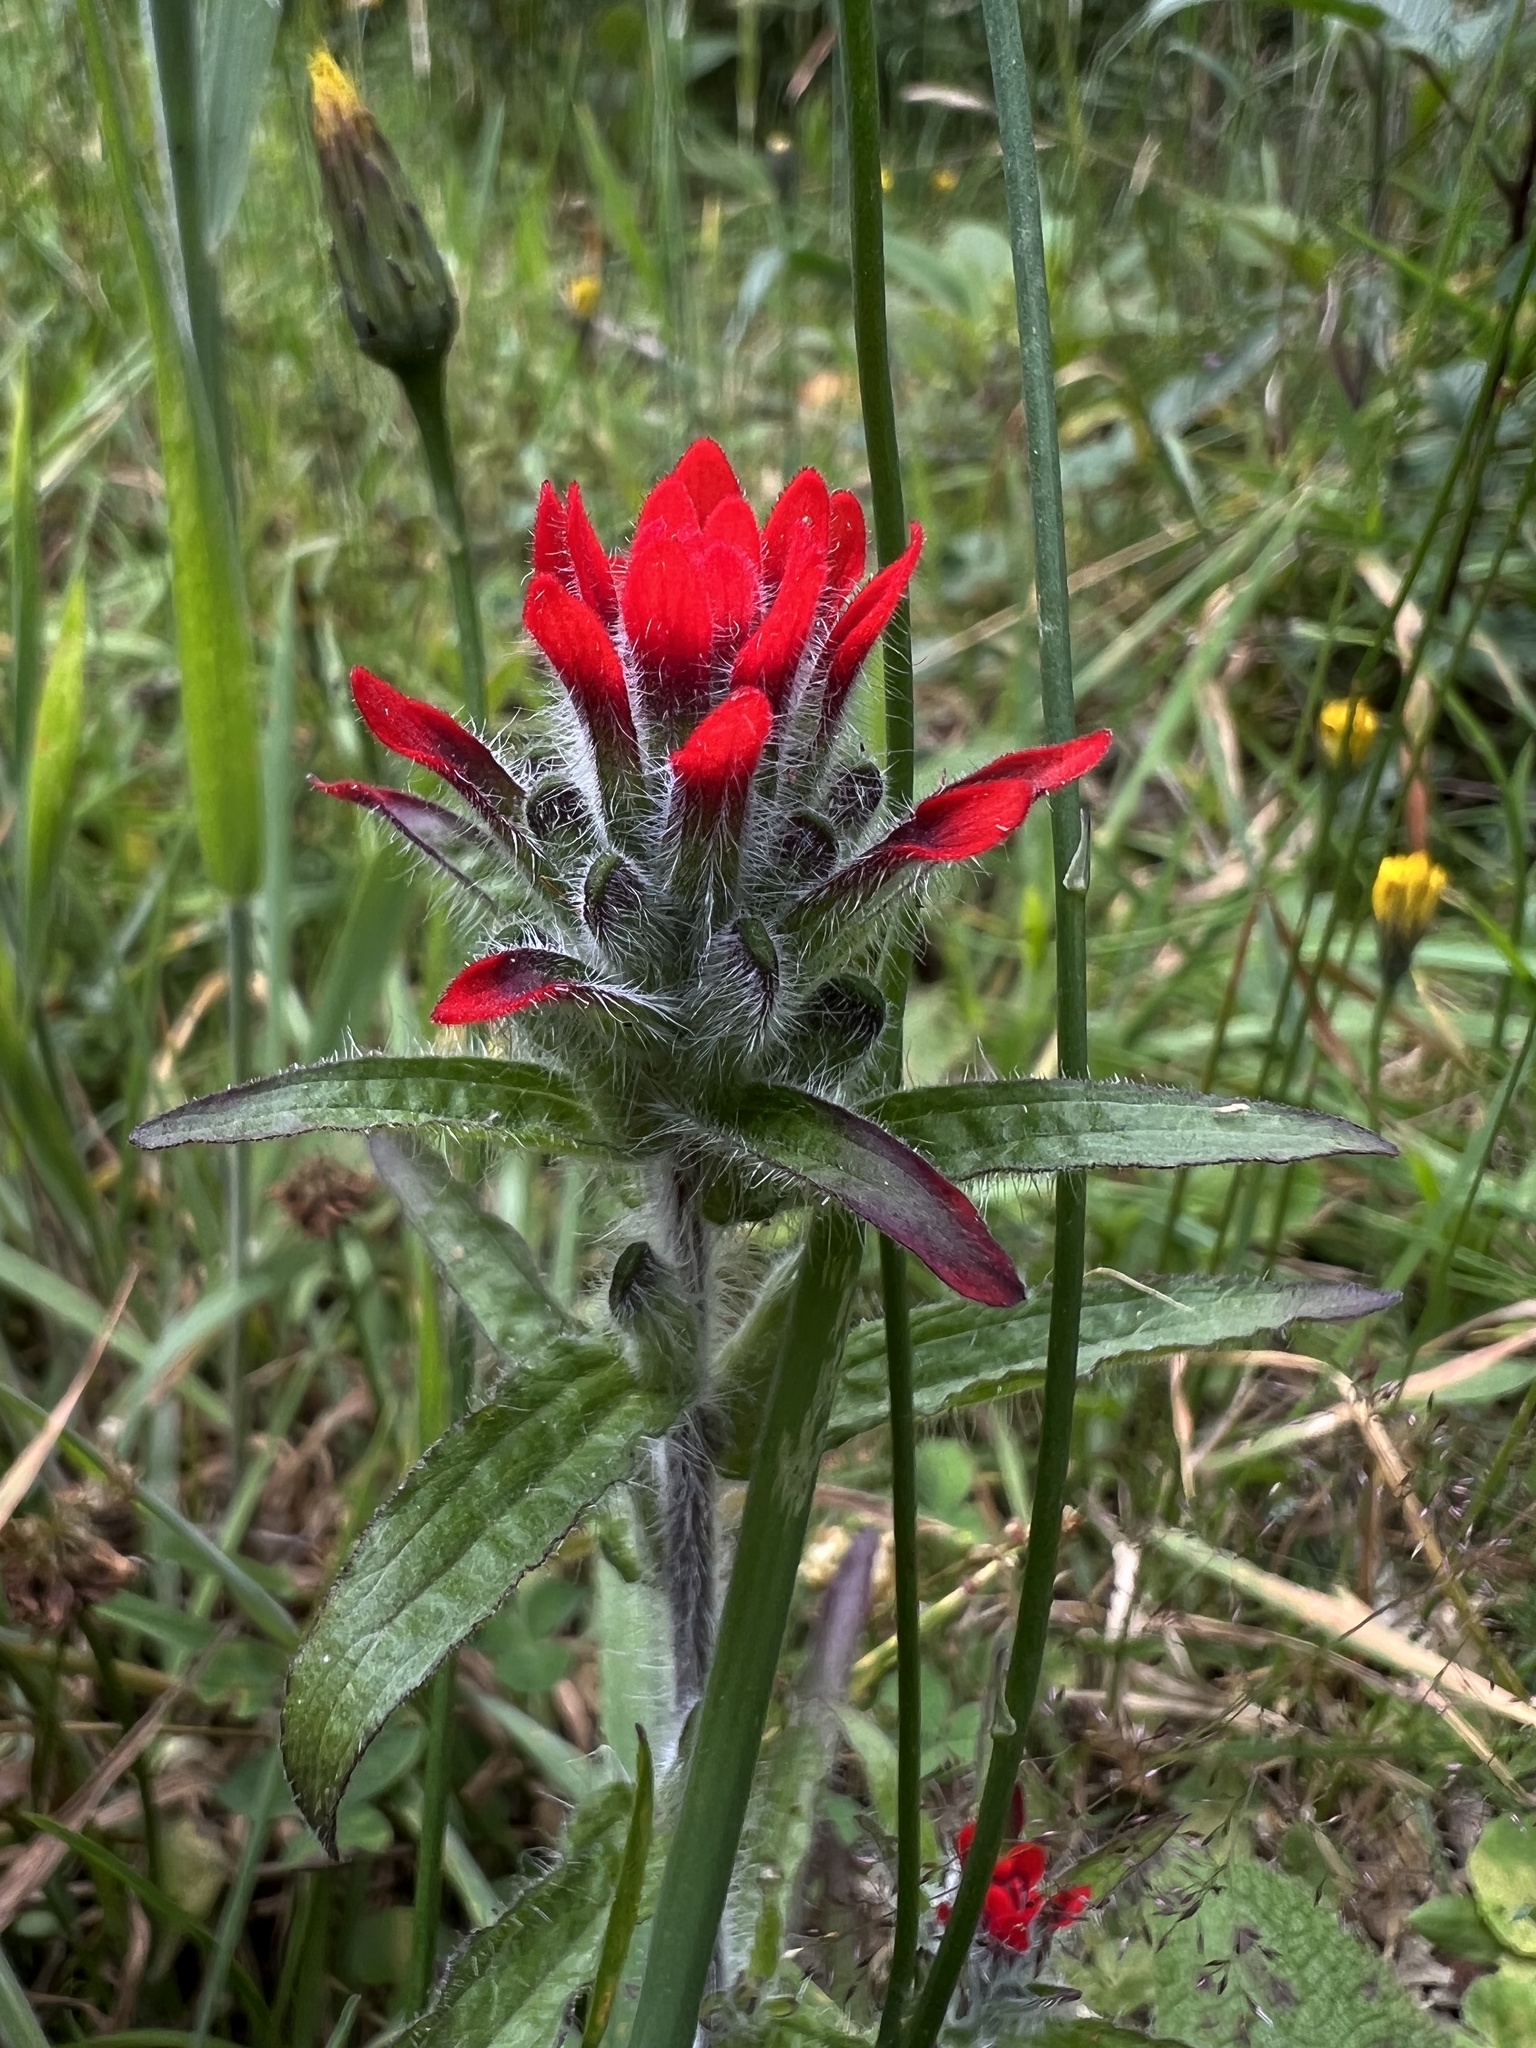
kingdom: Plantae
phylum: Tracheophyta
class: Magnoliopsida
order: Lamiales
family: Orobanchaceae
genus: Castilleja
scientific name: Castilleja arvensis
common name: Indian paintbrush
